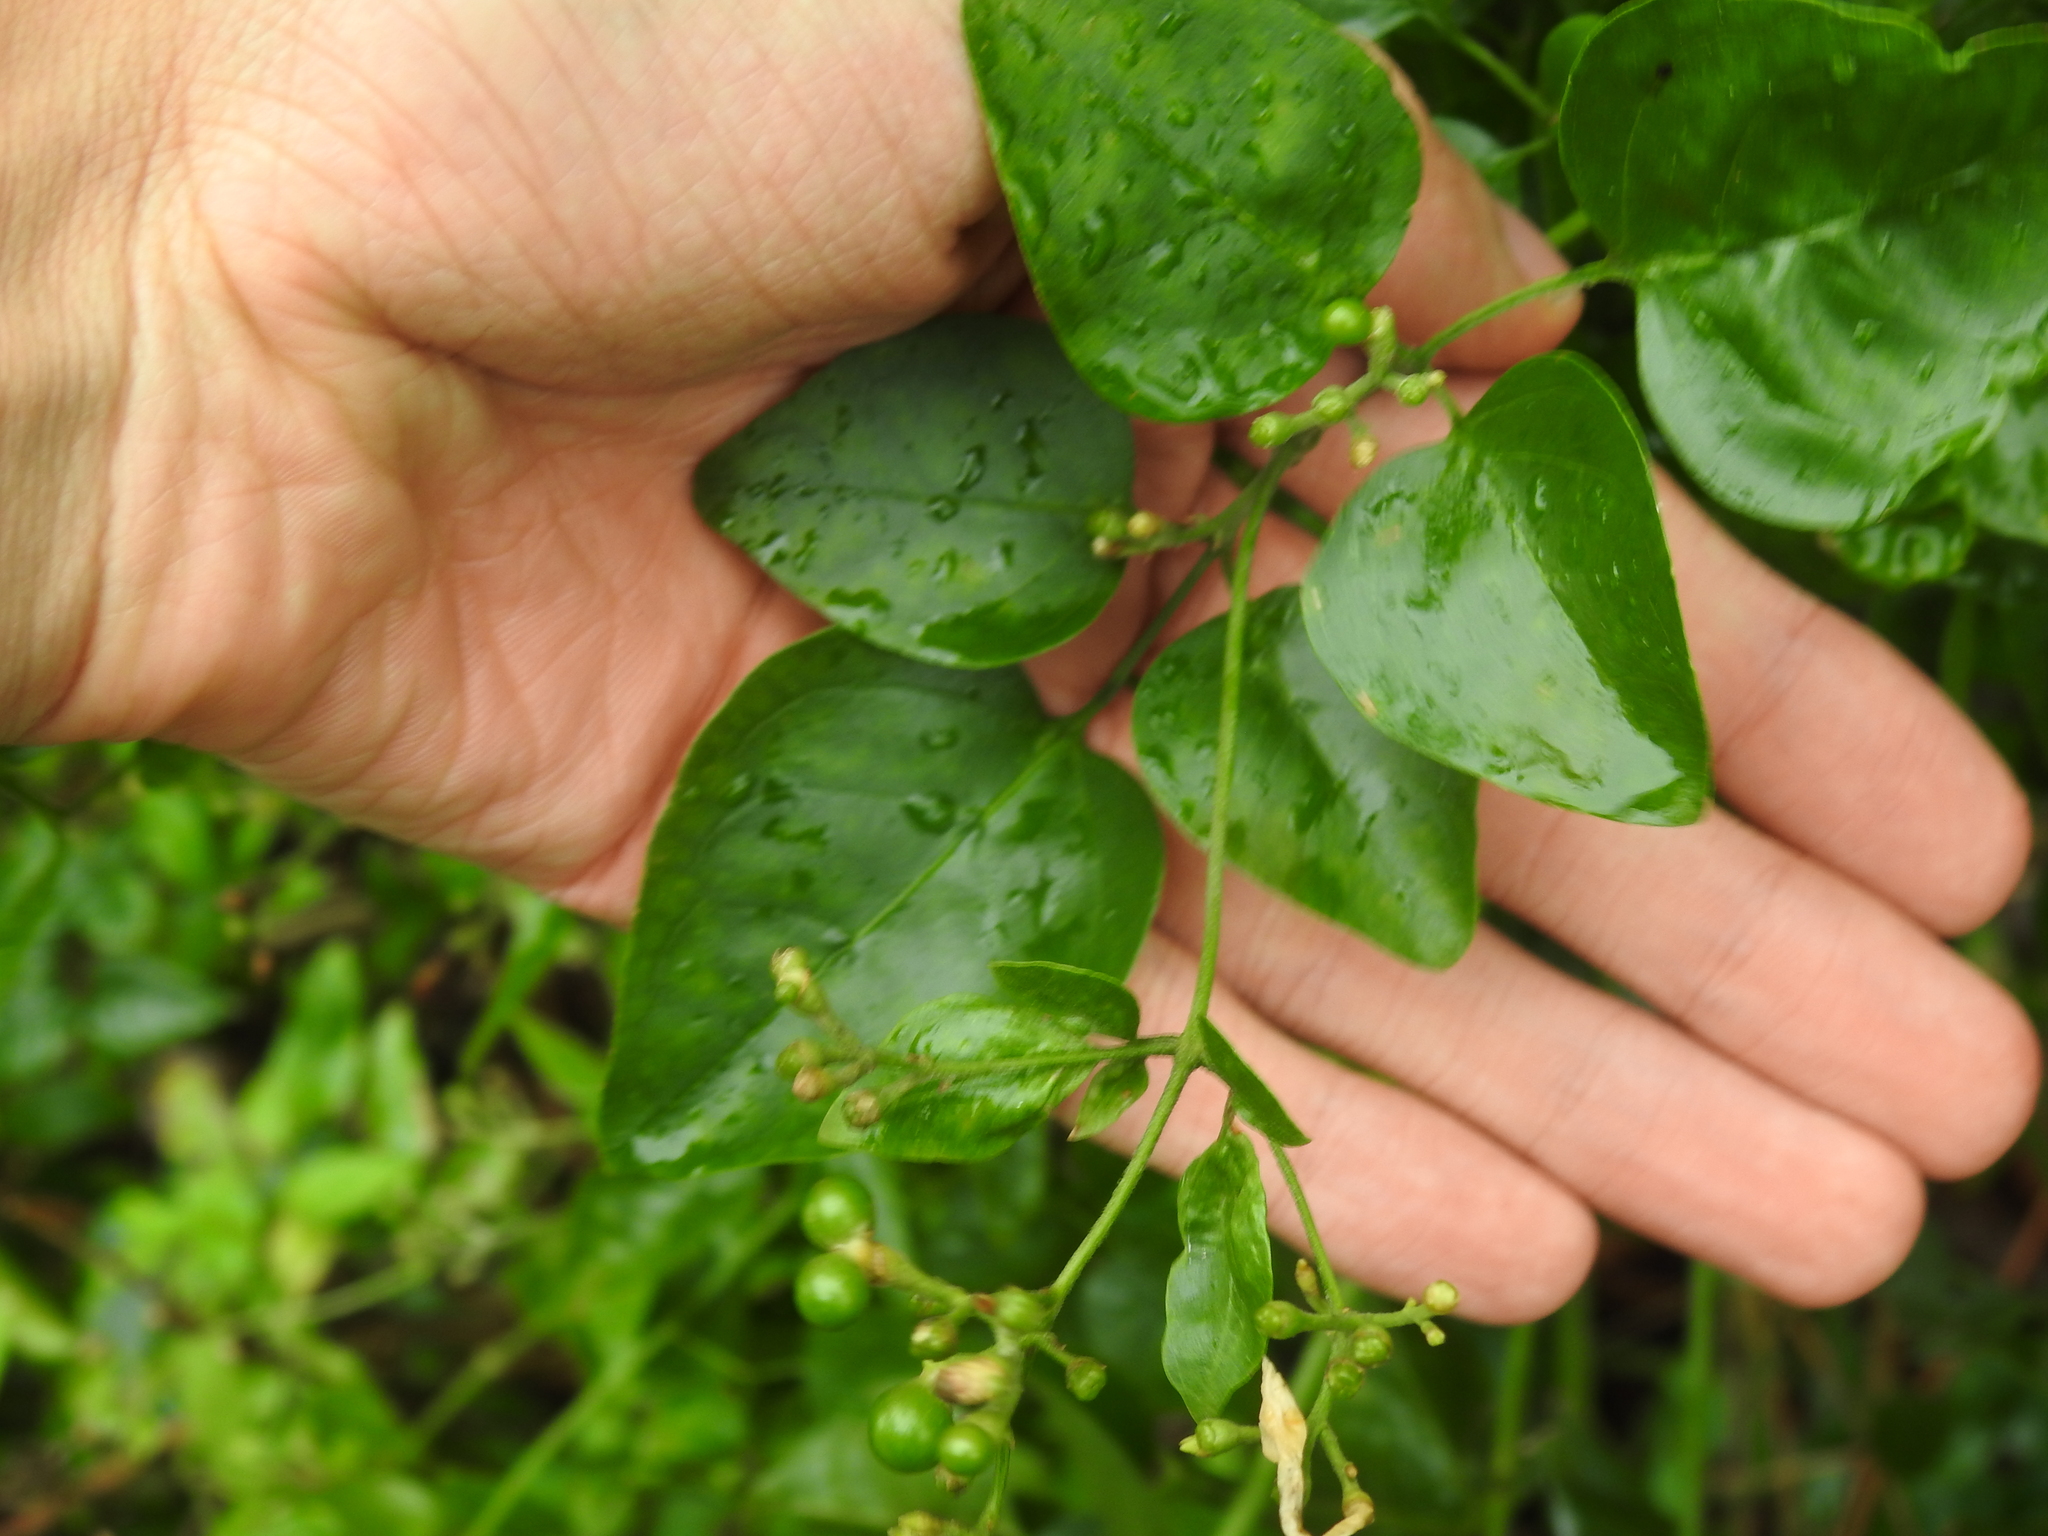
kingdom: Plantae
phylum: Tracheophyta
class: Magnoliopsida
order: Lamiales
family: Oleaceae
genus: Jasminum
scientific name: Jasminum fluminense
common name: Brazilian jasmine
